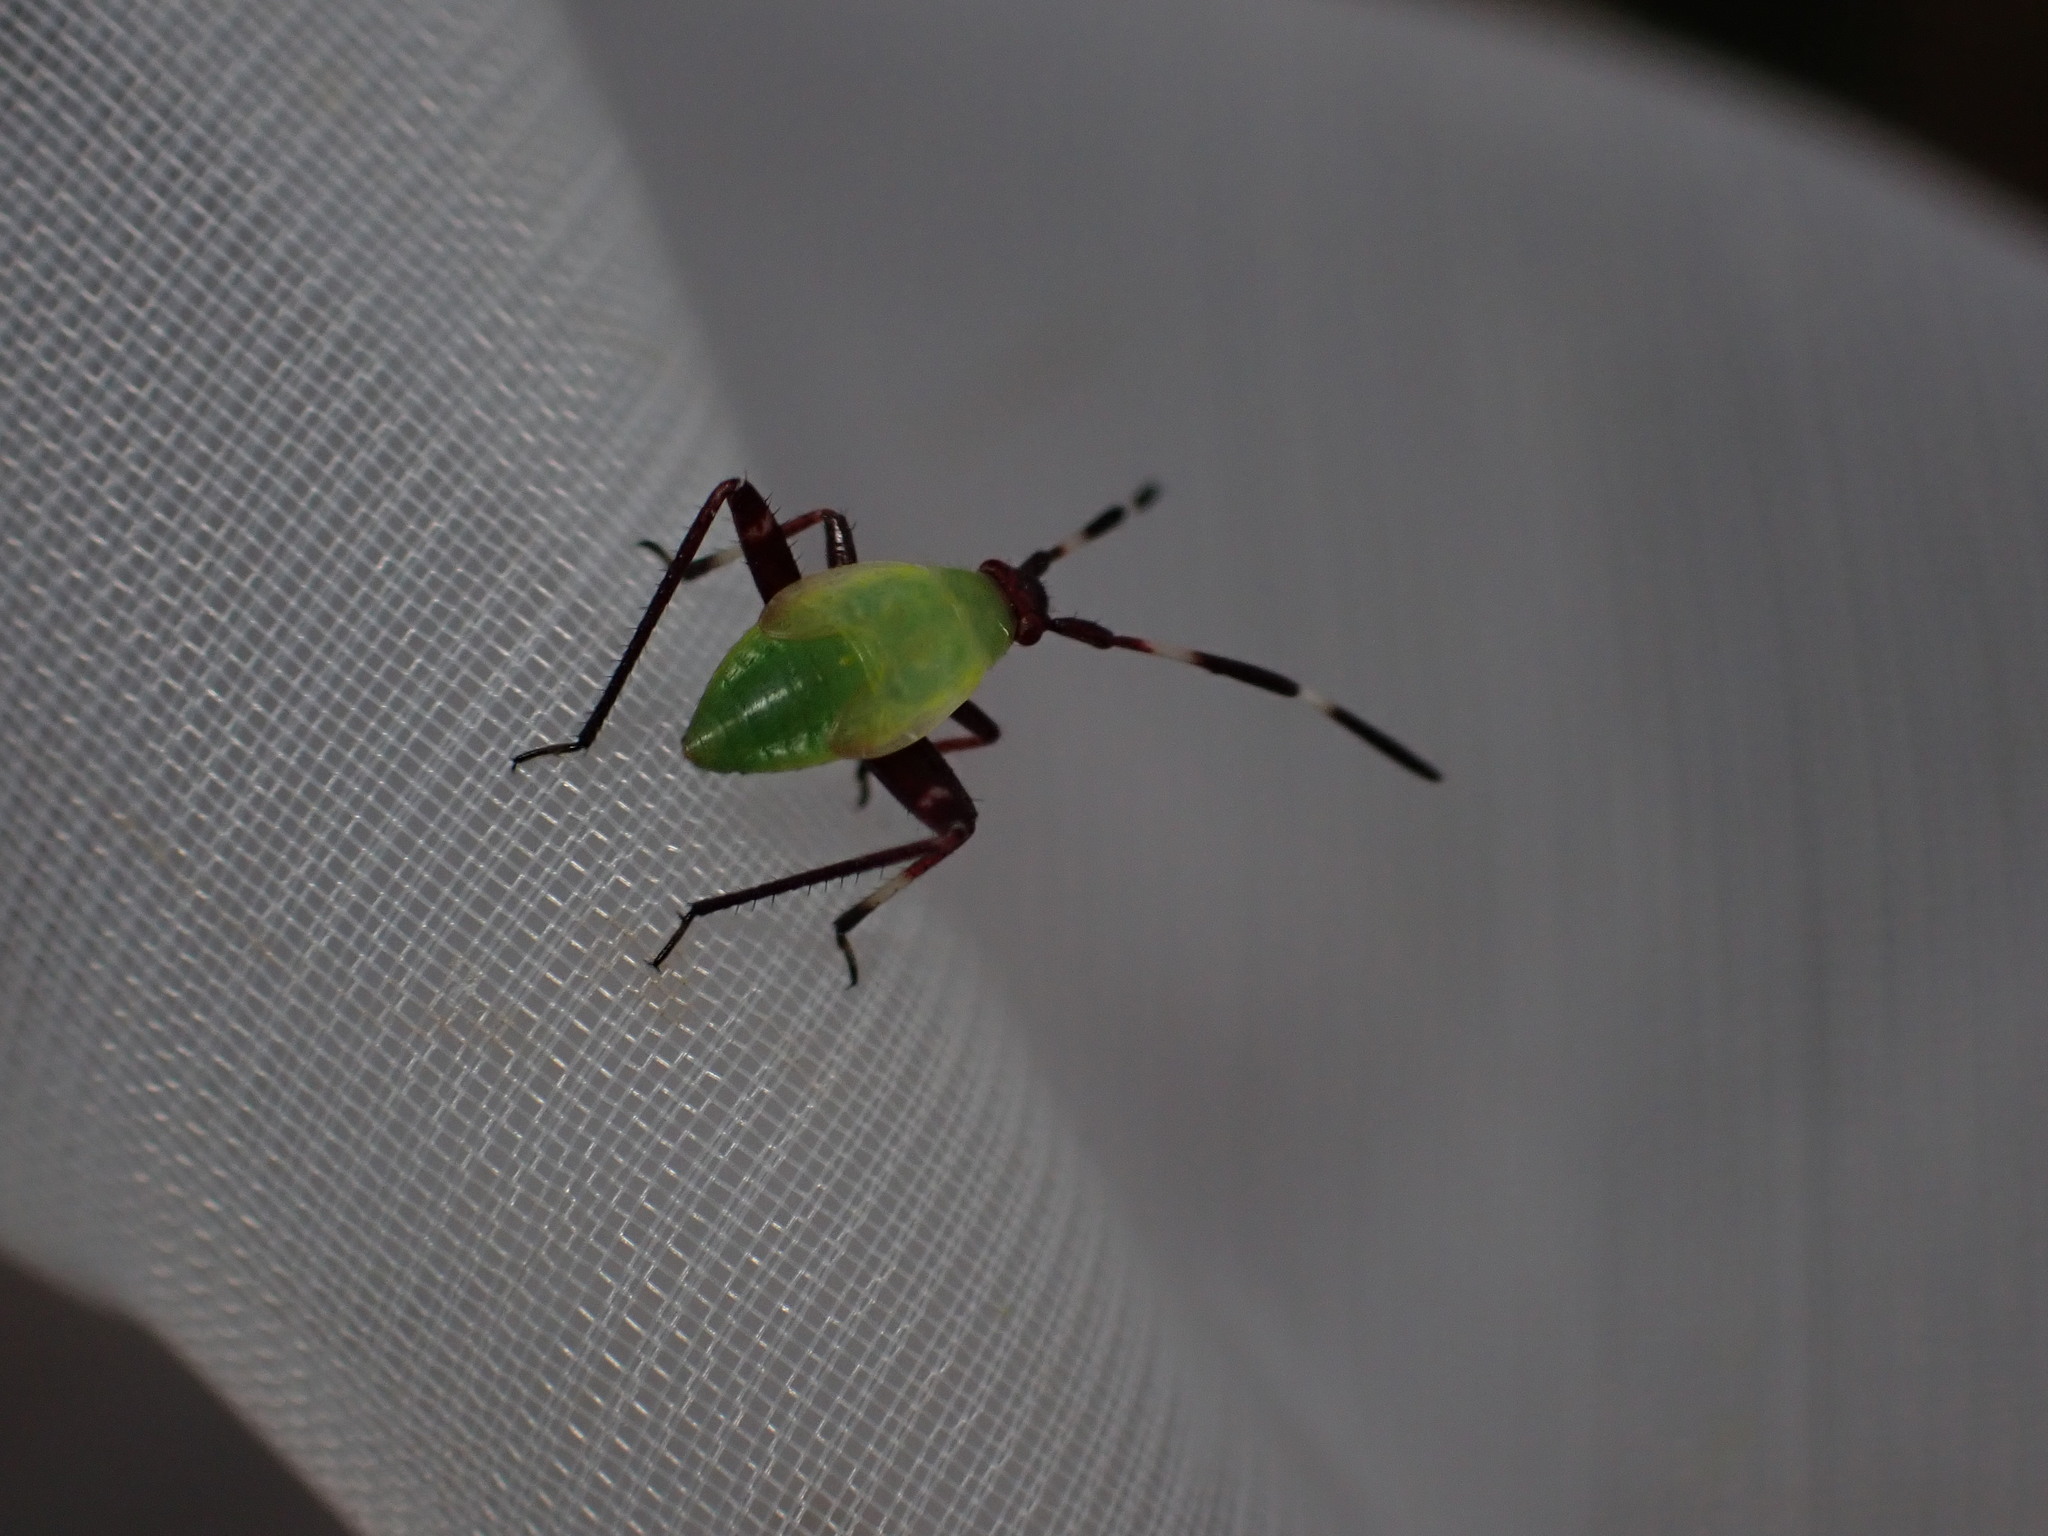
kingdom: Animalia
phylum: Arthropoda
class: Insecta
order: Hemiptera
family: Miridae
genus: Adelphocoris
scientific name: Adelphocoris vandalicus
